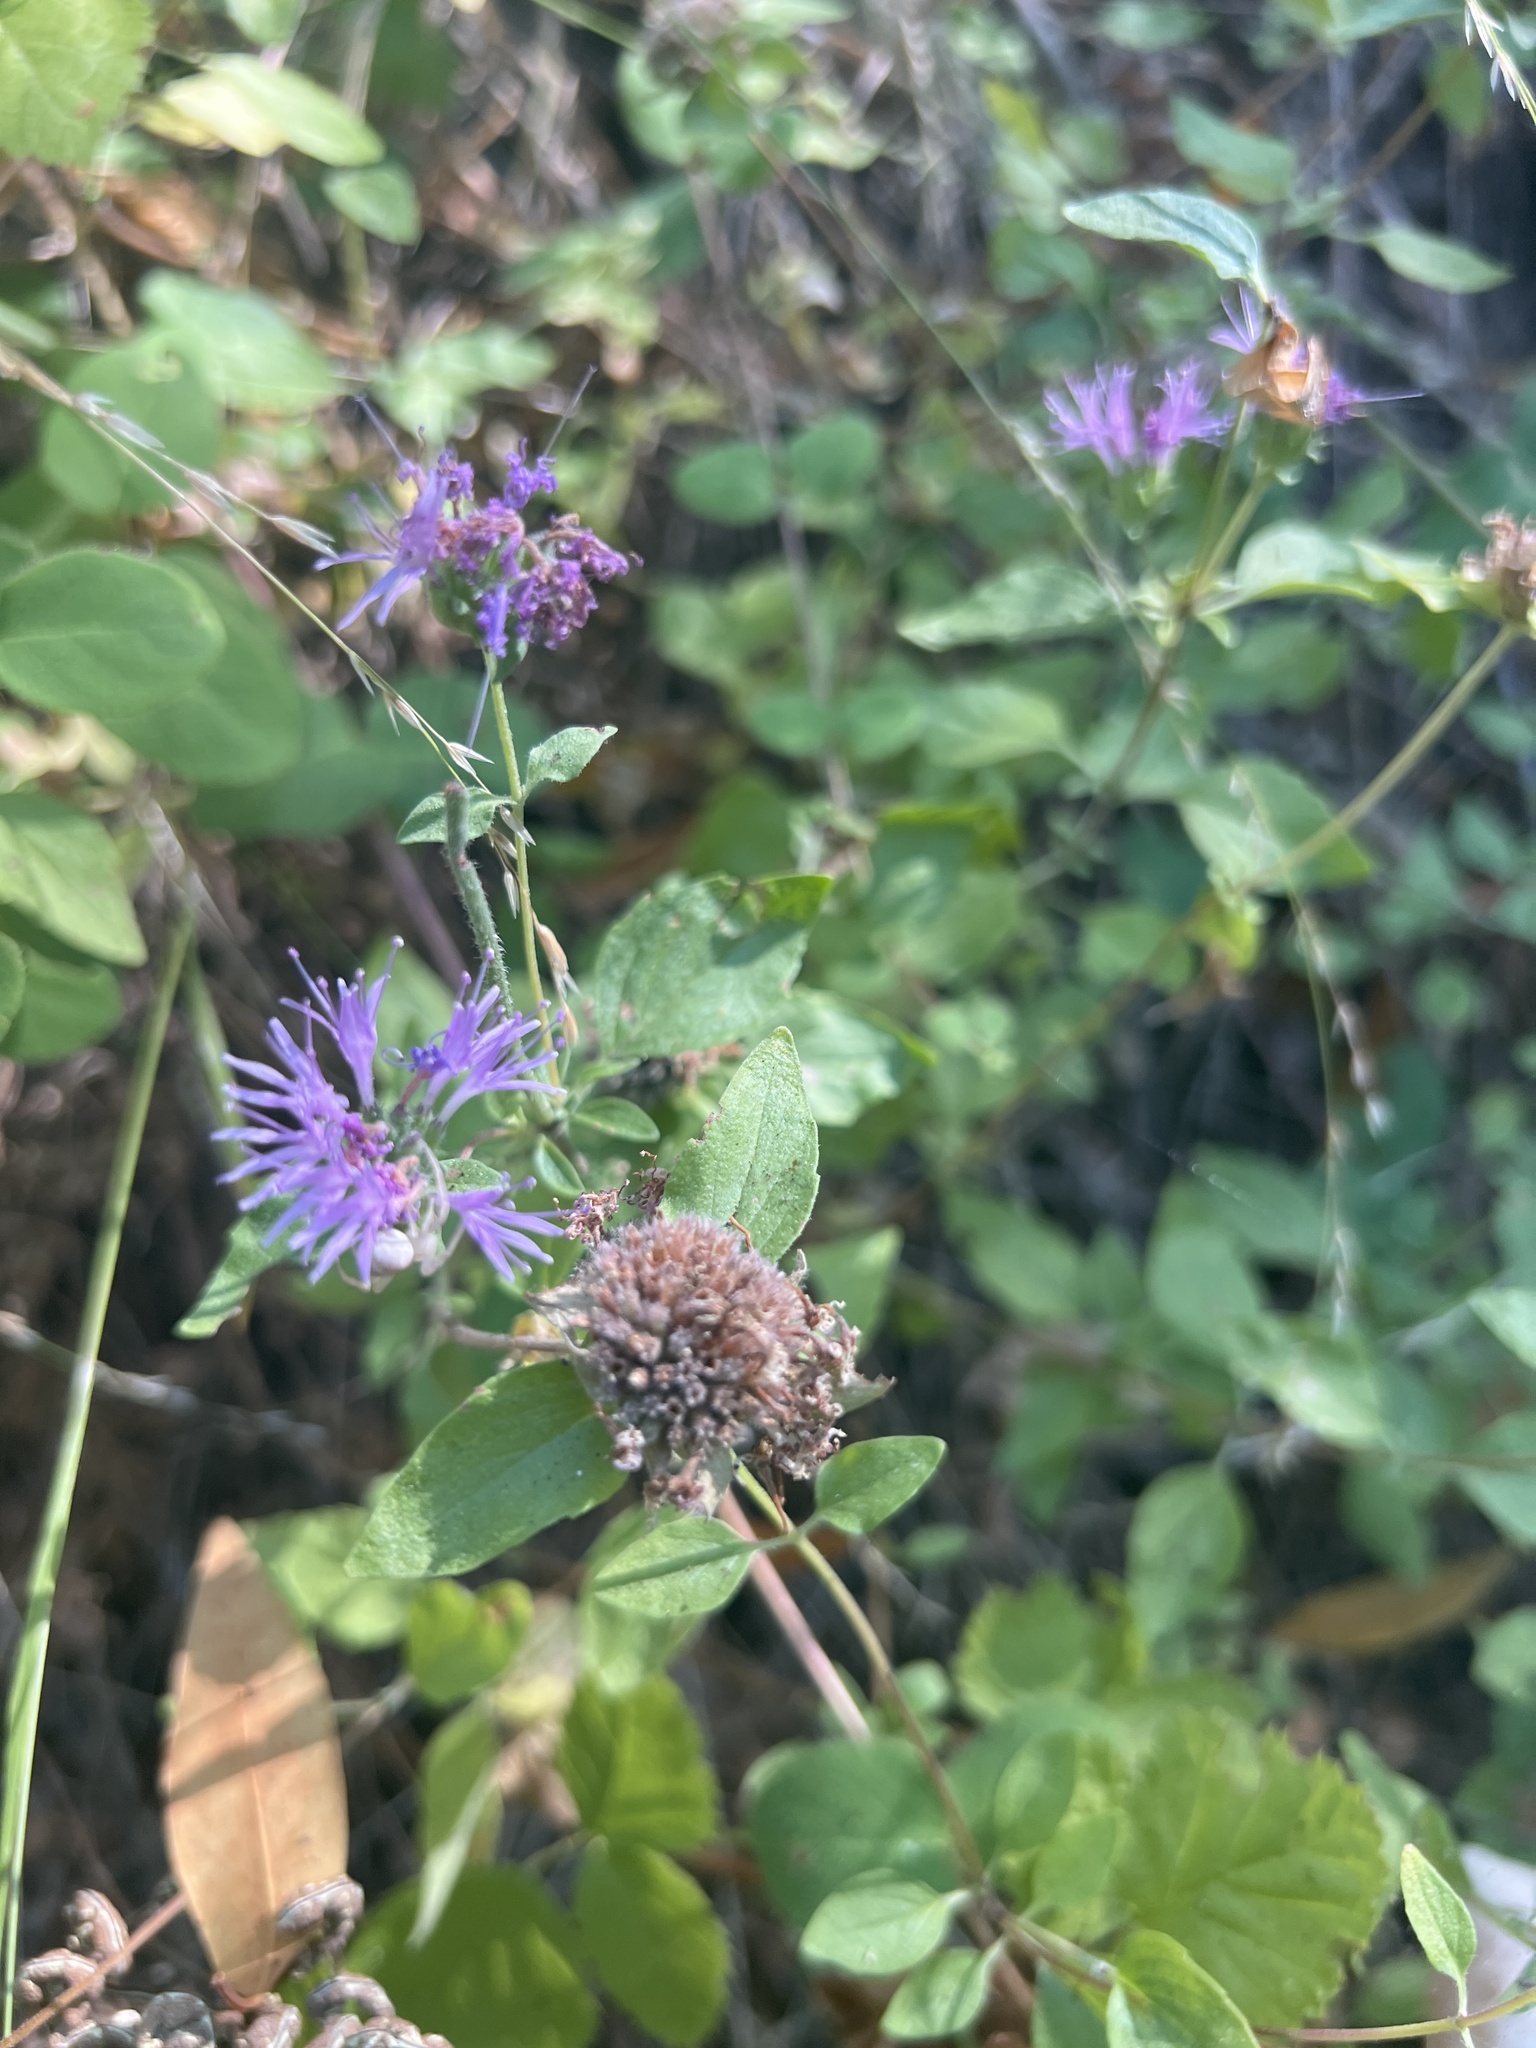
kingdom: Plantae
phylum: Tracheophyta
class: Magnoliopsida
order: Lamiales
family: Lamiaceae
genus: Monardella
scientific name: Monardella odoratissima
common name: Pacific monardella
